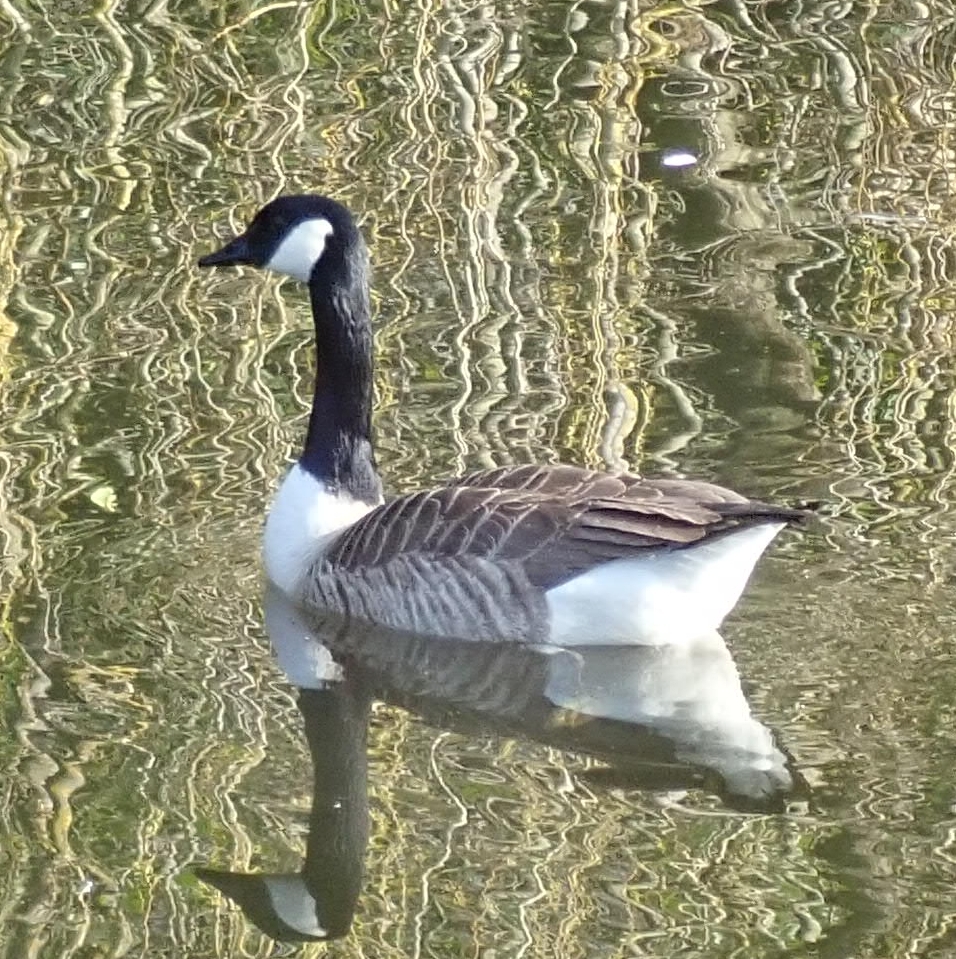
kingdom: Animalia
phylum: Chordata
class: Aves
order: Anseriformes
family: Anatidae
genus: Branta
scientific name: Branta canadensis
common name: Canada goose
